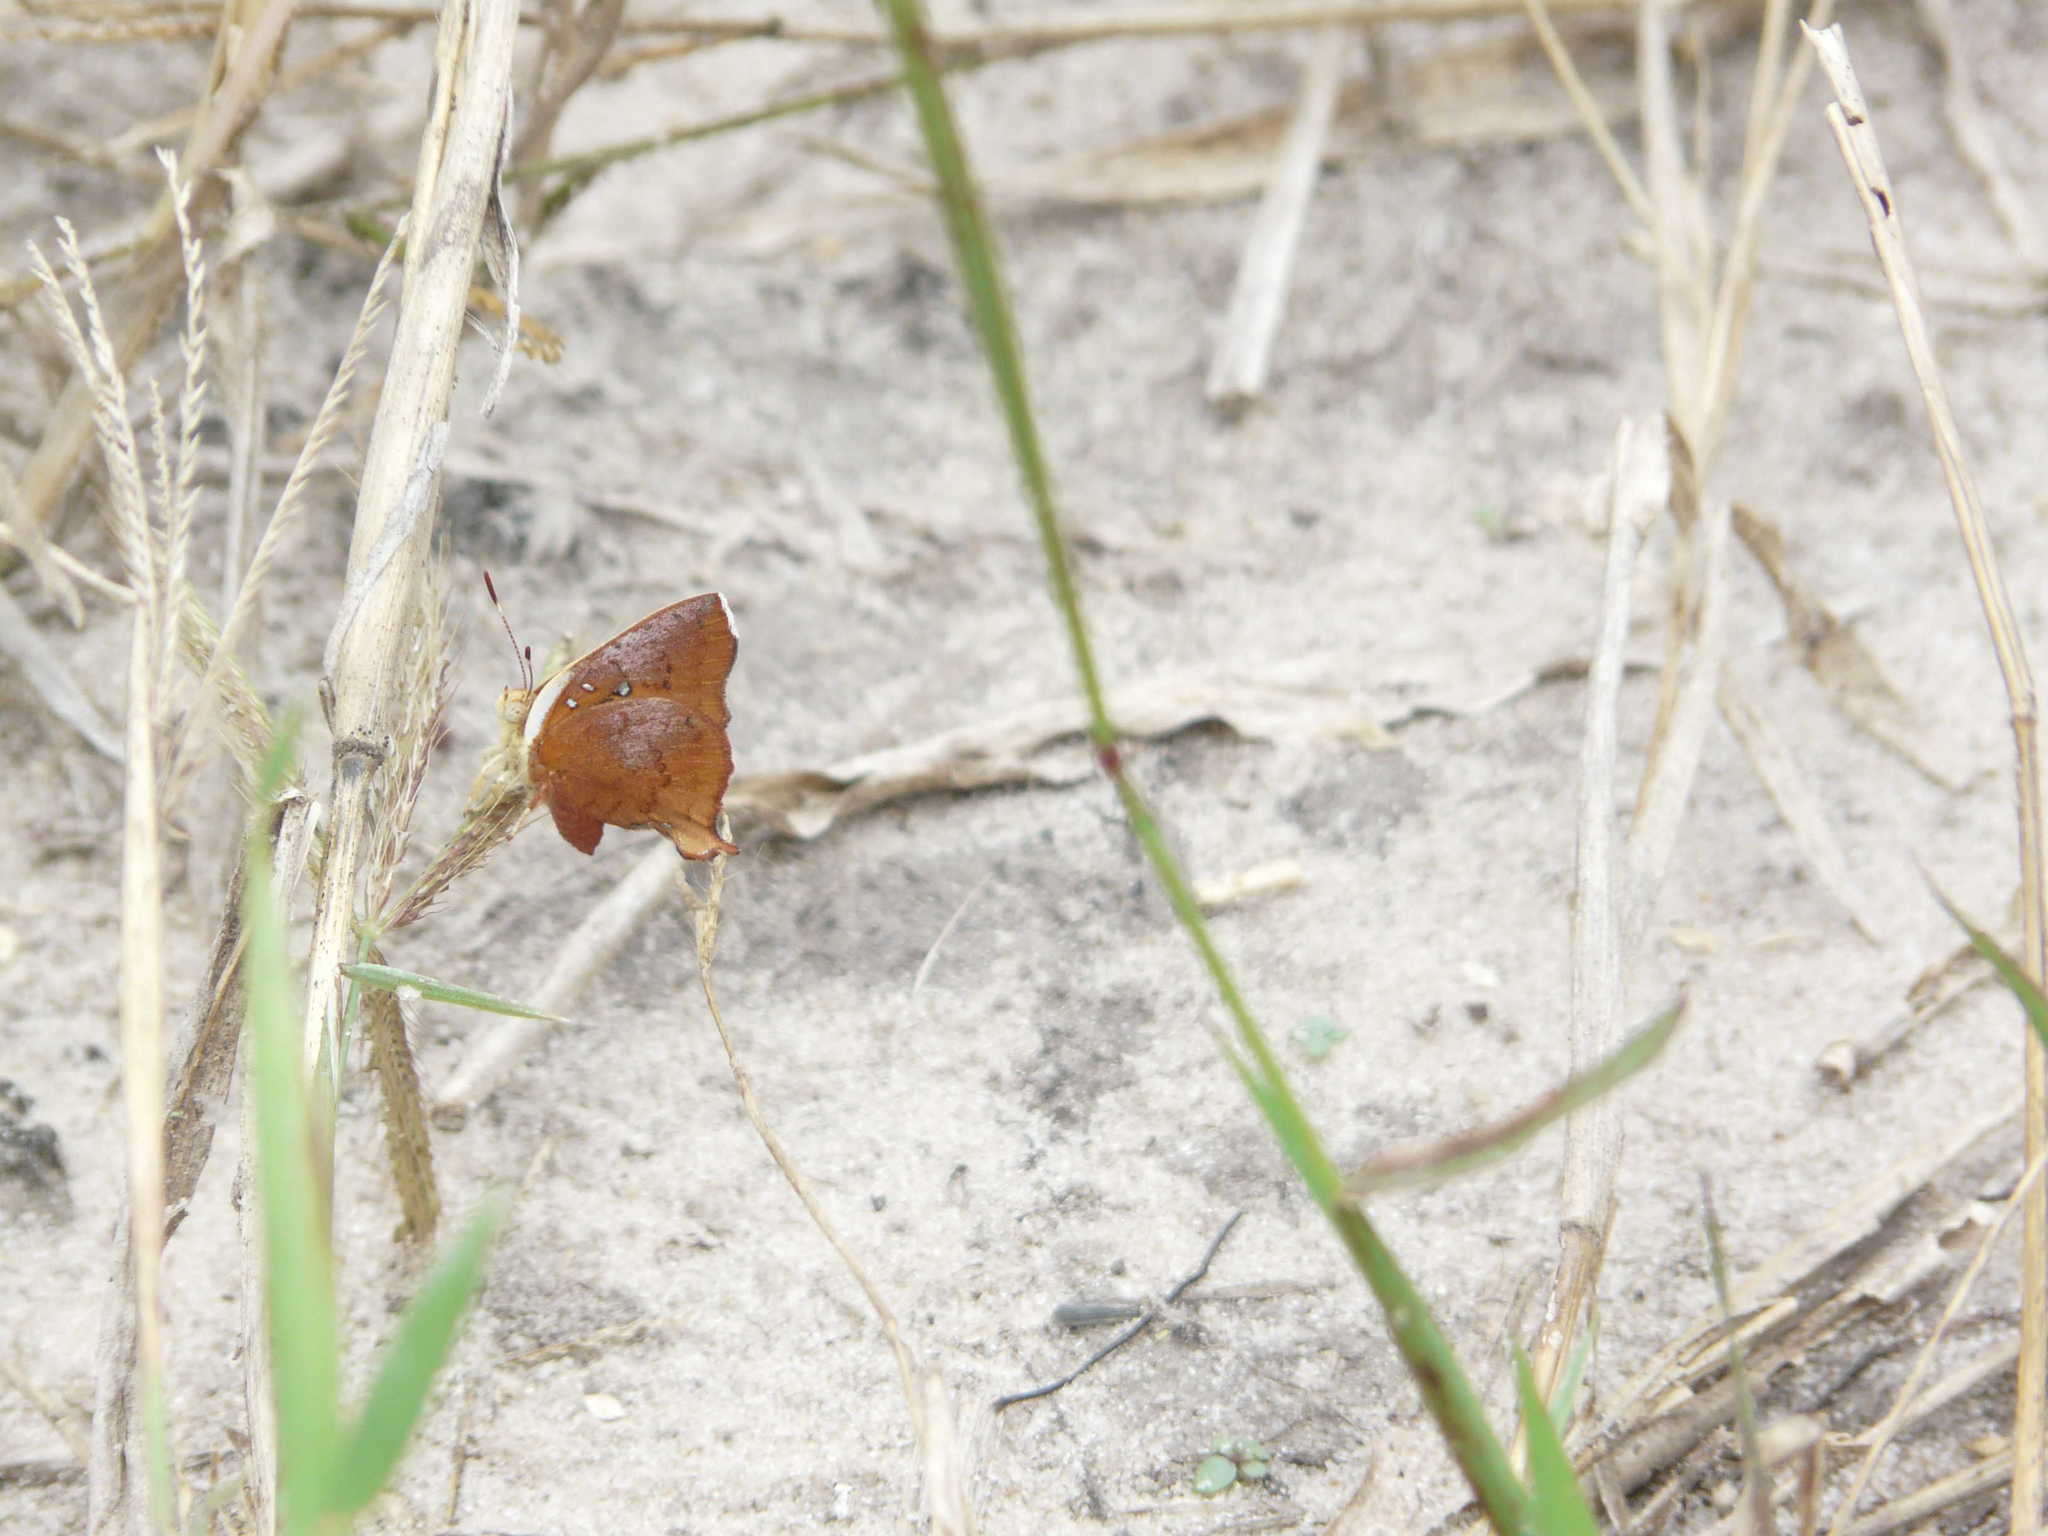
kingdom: Animalia
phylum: Arthropoda
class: Insecta
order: Lepidoptera
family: Lycaenidae
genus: Axiocerses
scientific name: Axiocerses amanga
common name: Bush scarlet
